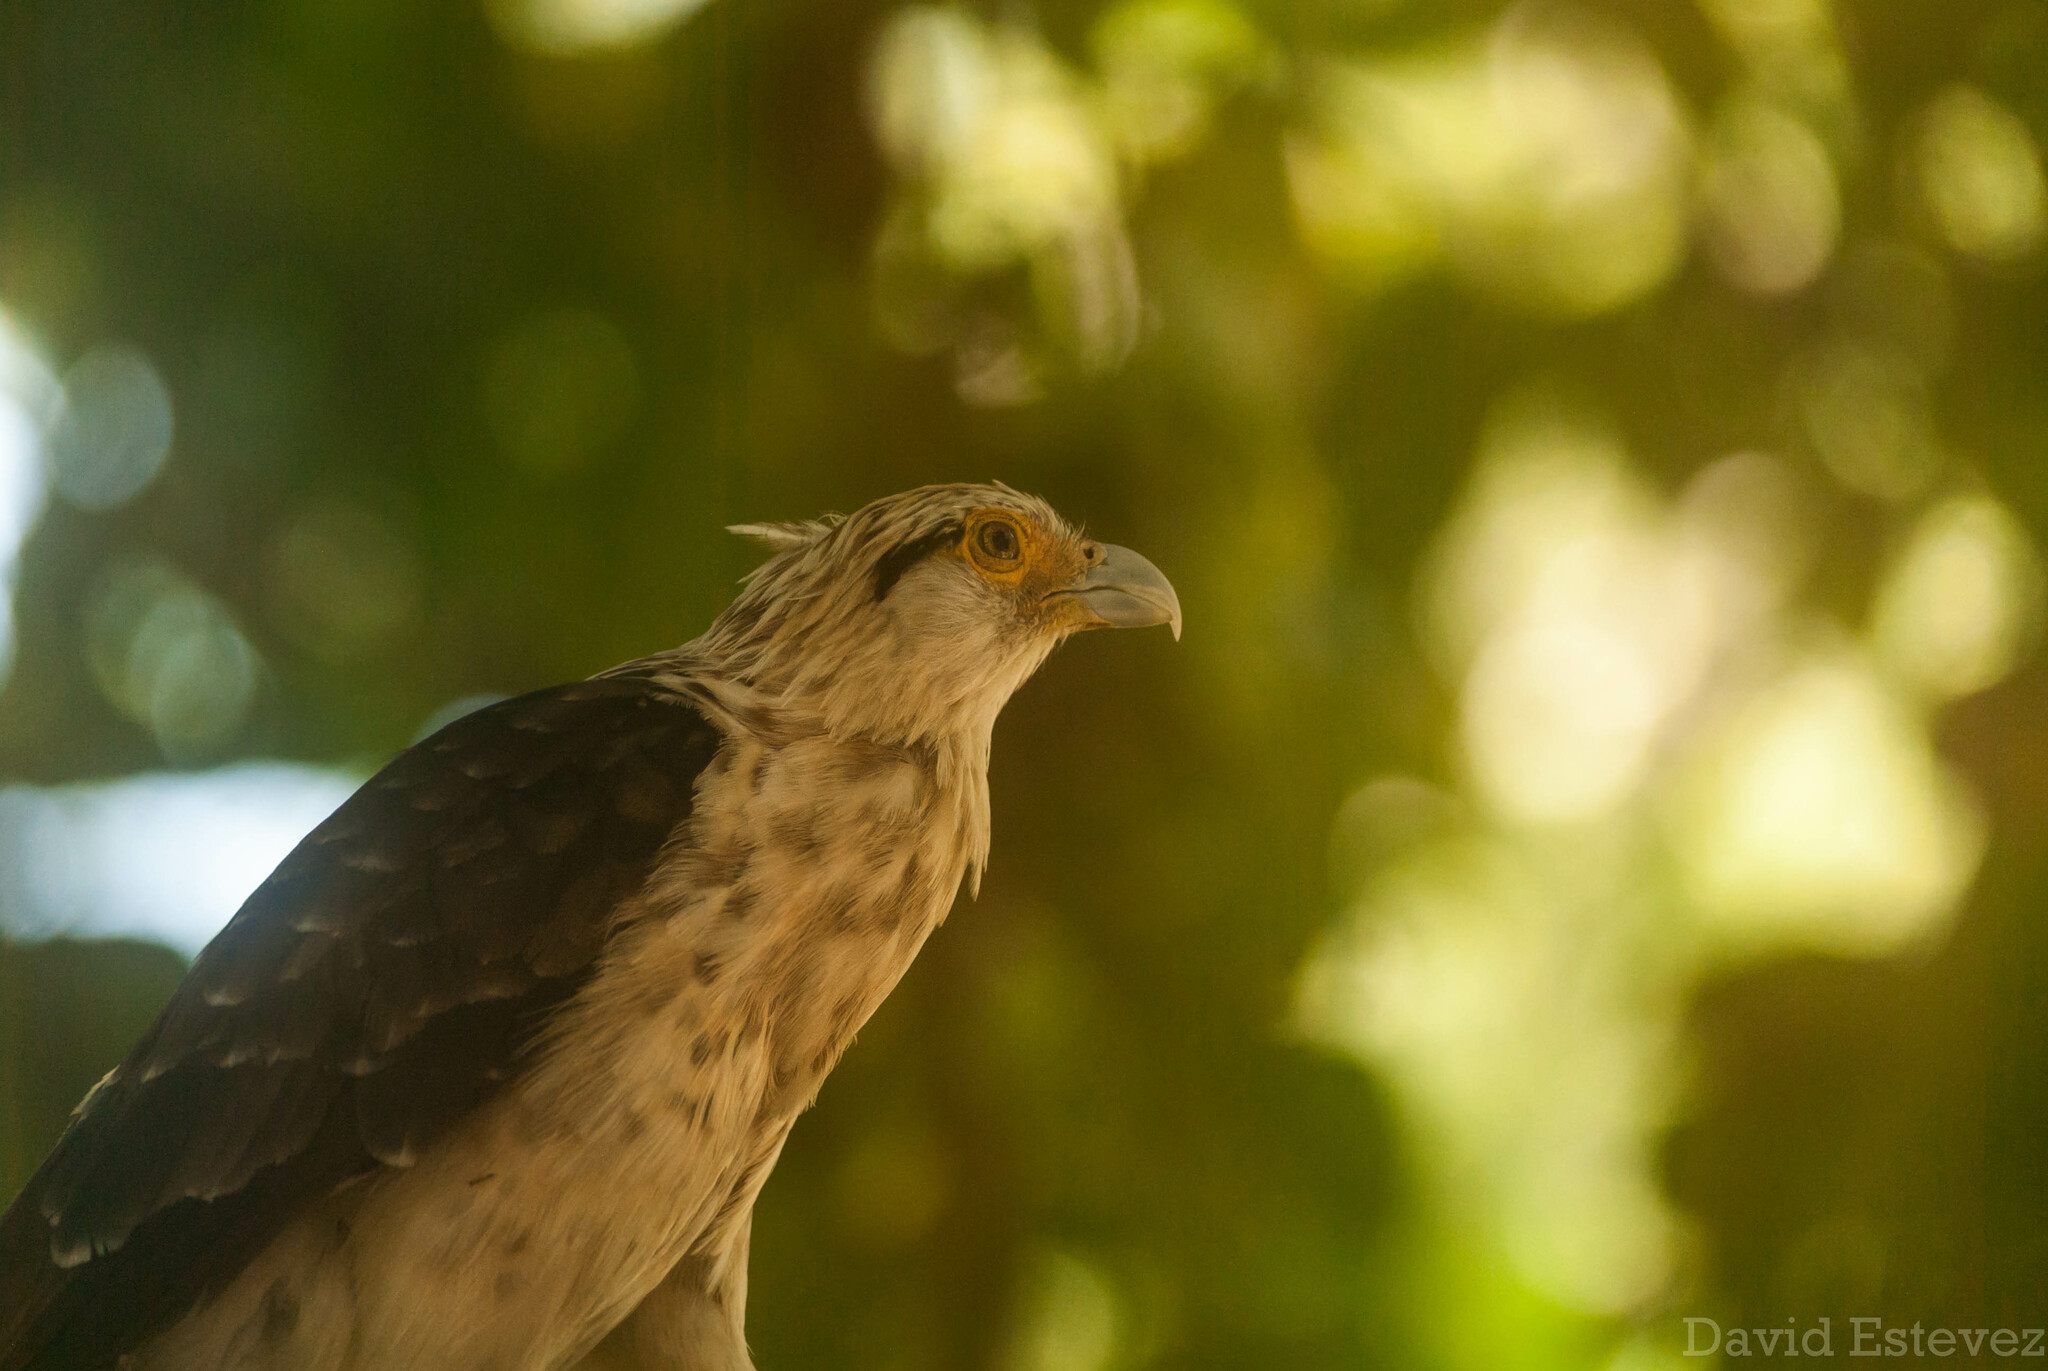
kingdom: Animalia
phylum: Chordata
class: Aves
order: Falconiformes
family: Falconidae
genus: Daptrius
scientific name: Daptrius
